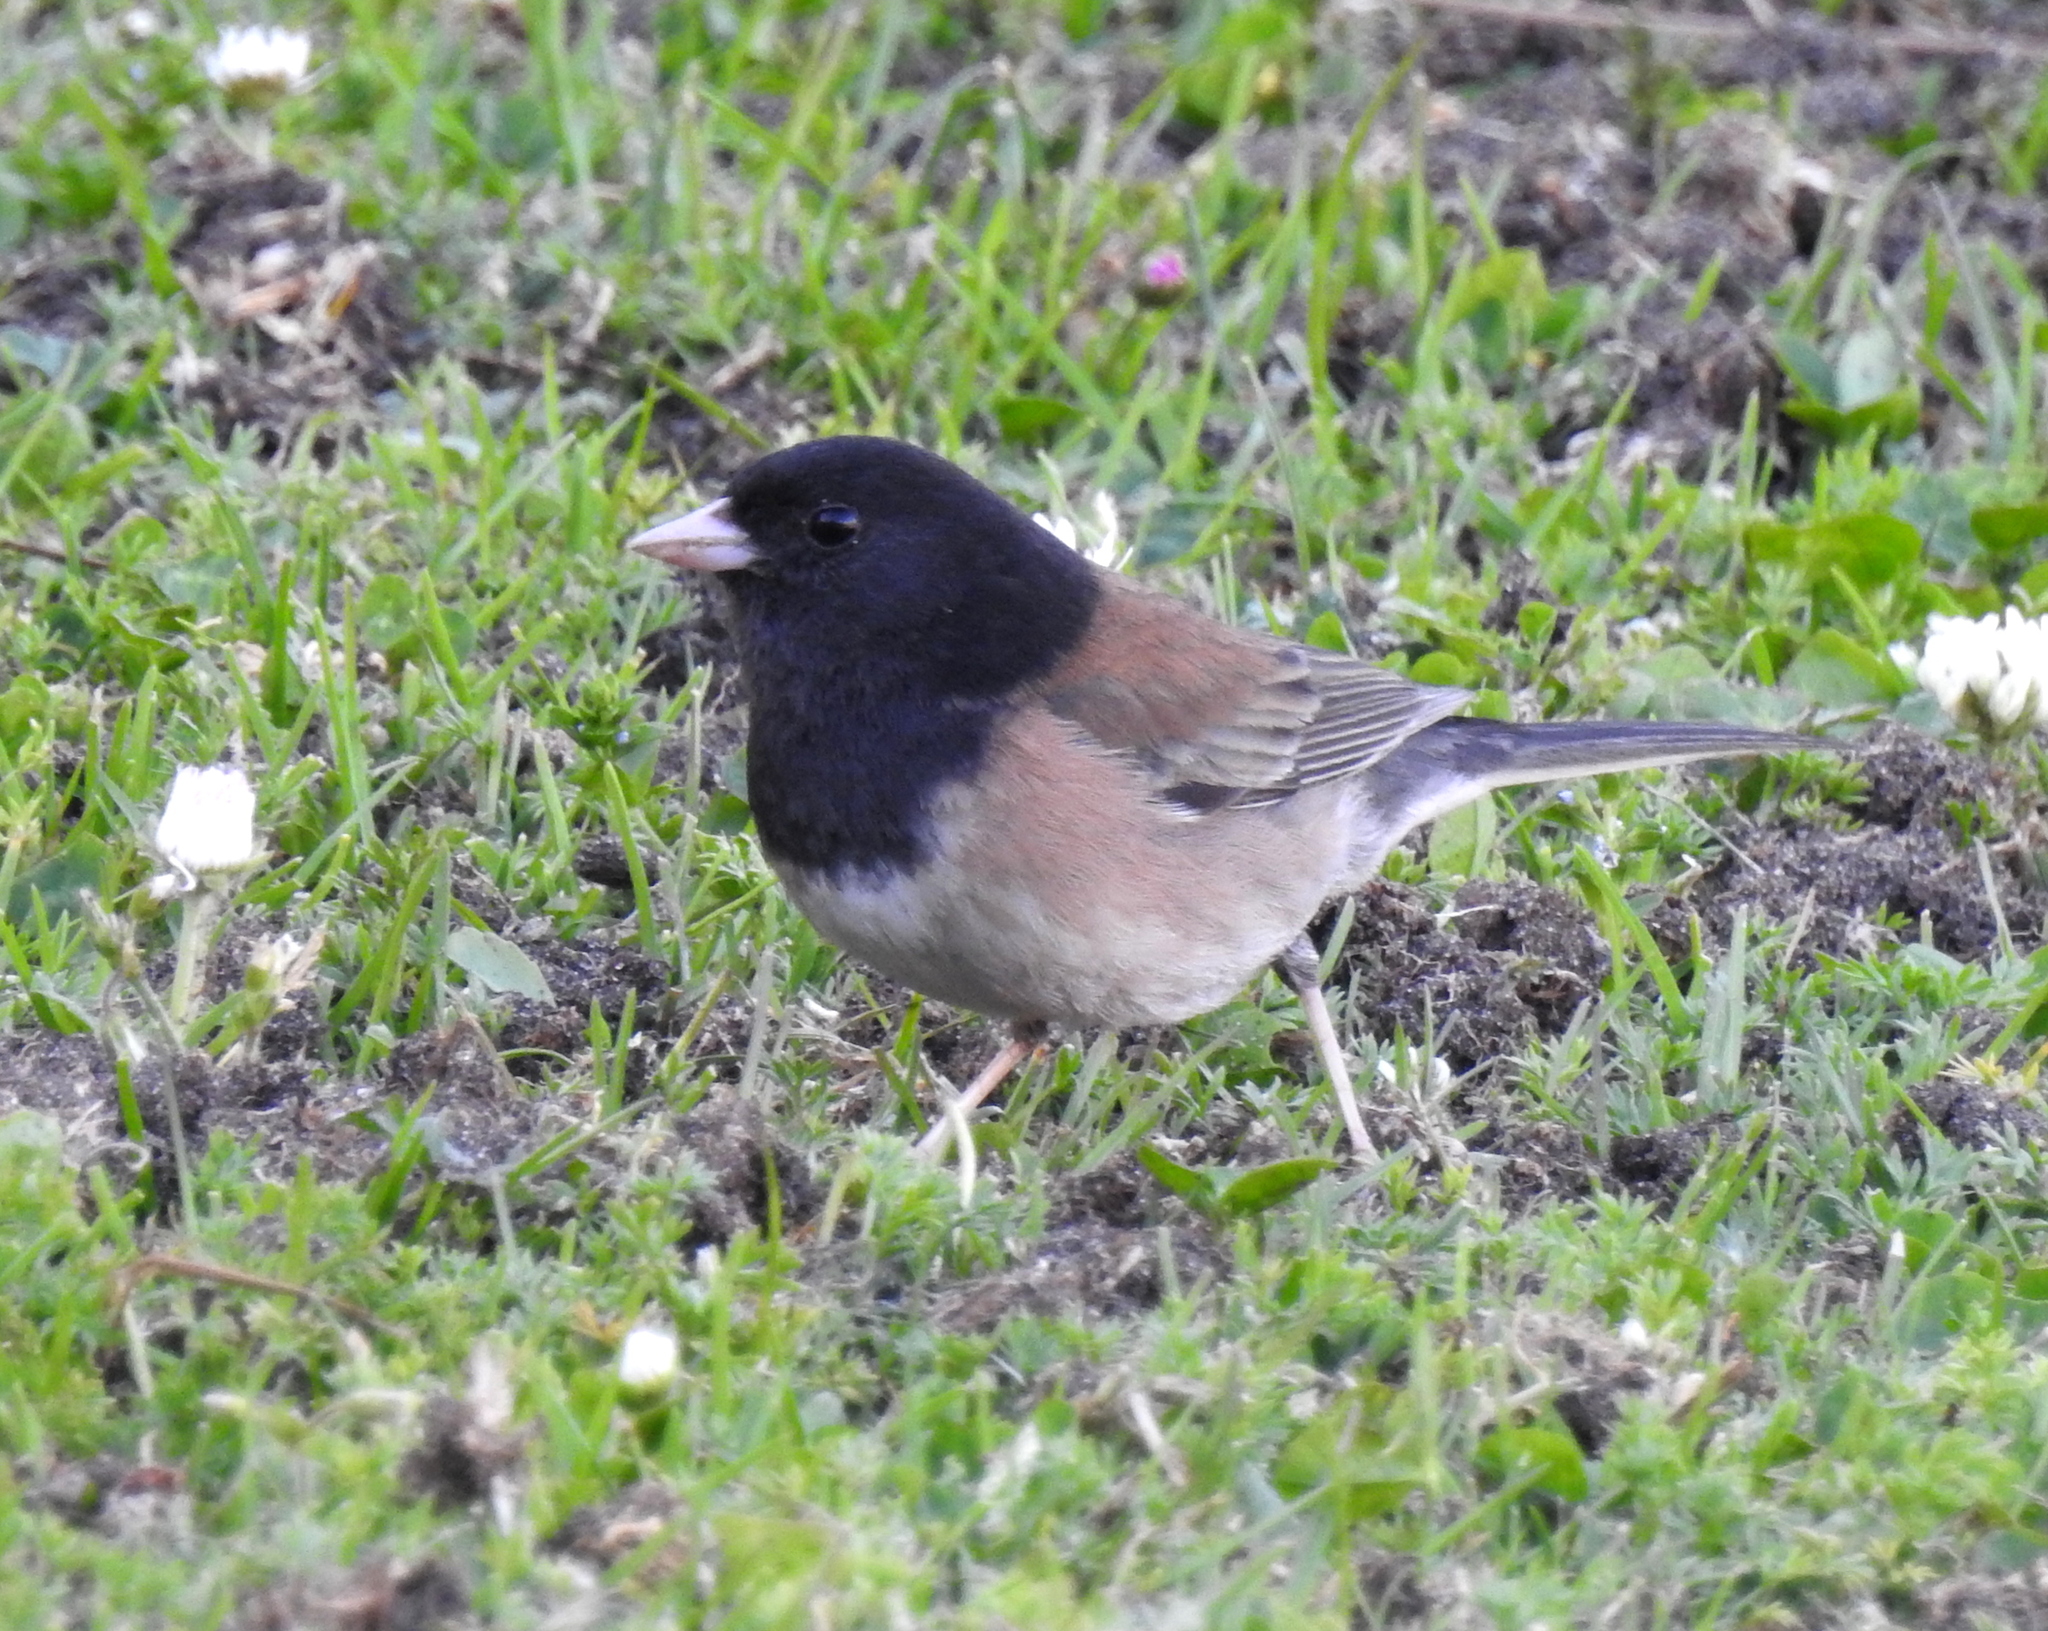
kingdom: Animalia
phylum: Chordata
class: Aves
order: Passeriformes
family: Passerellidae
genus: Junco
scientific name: Junco hyemalis
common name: Dark-eyed junco
